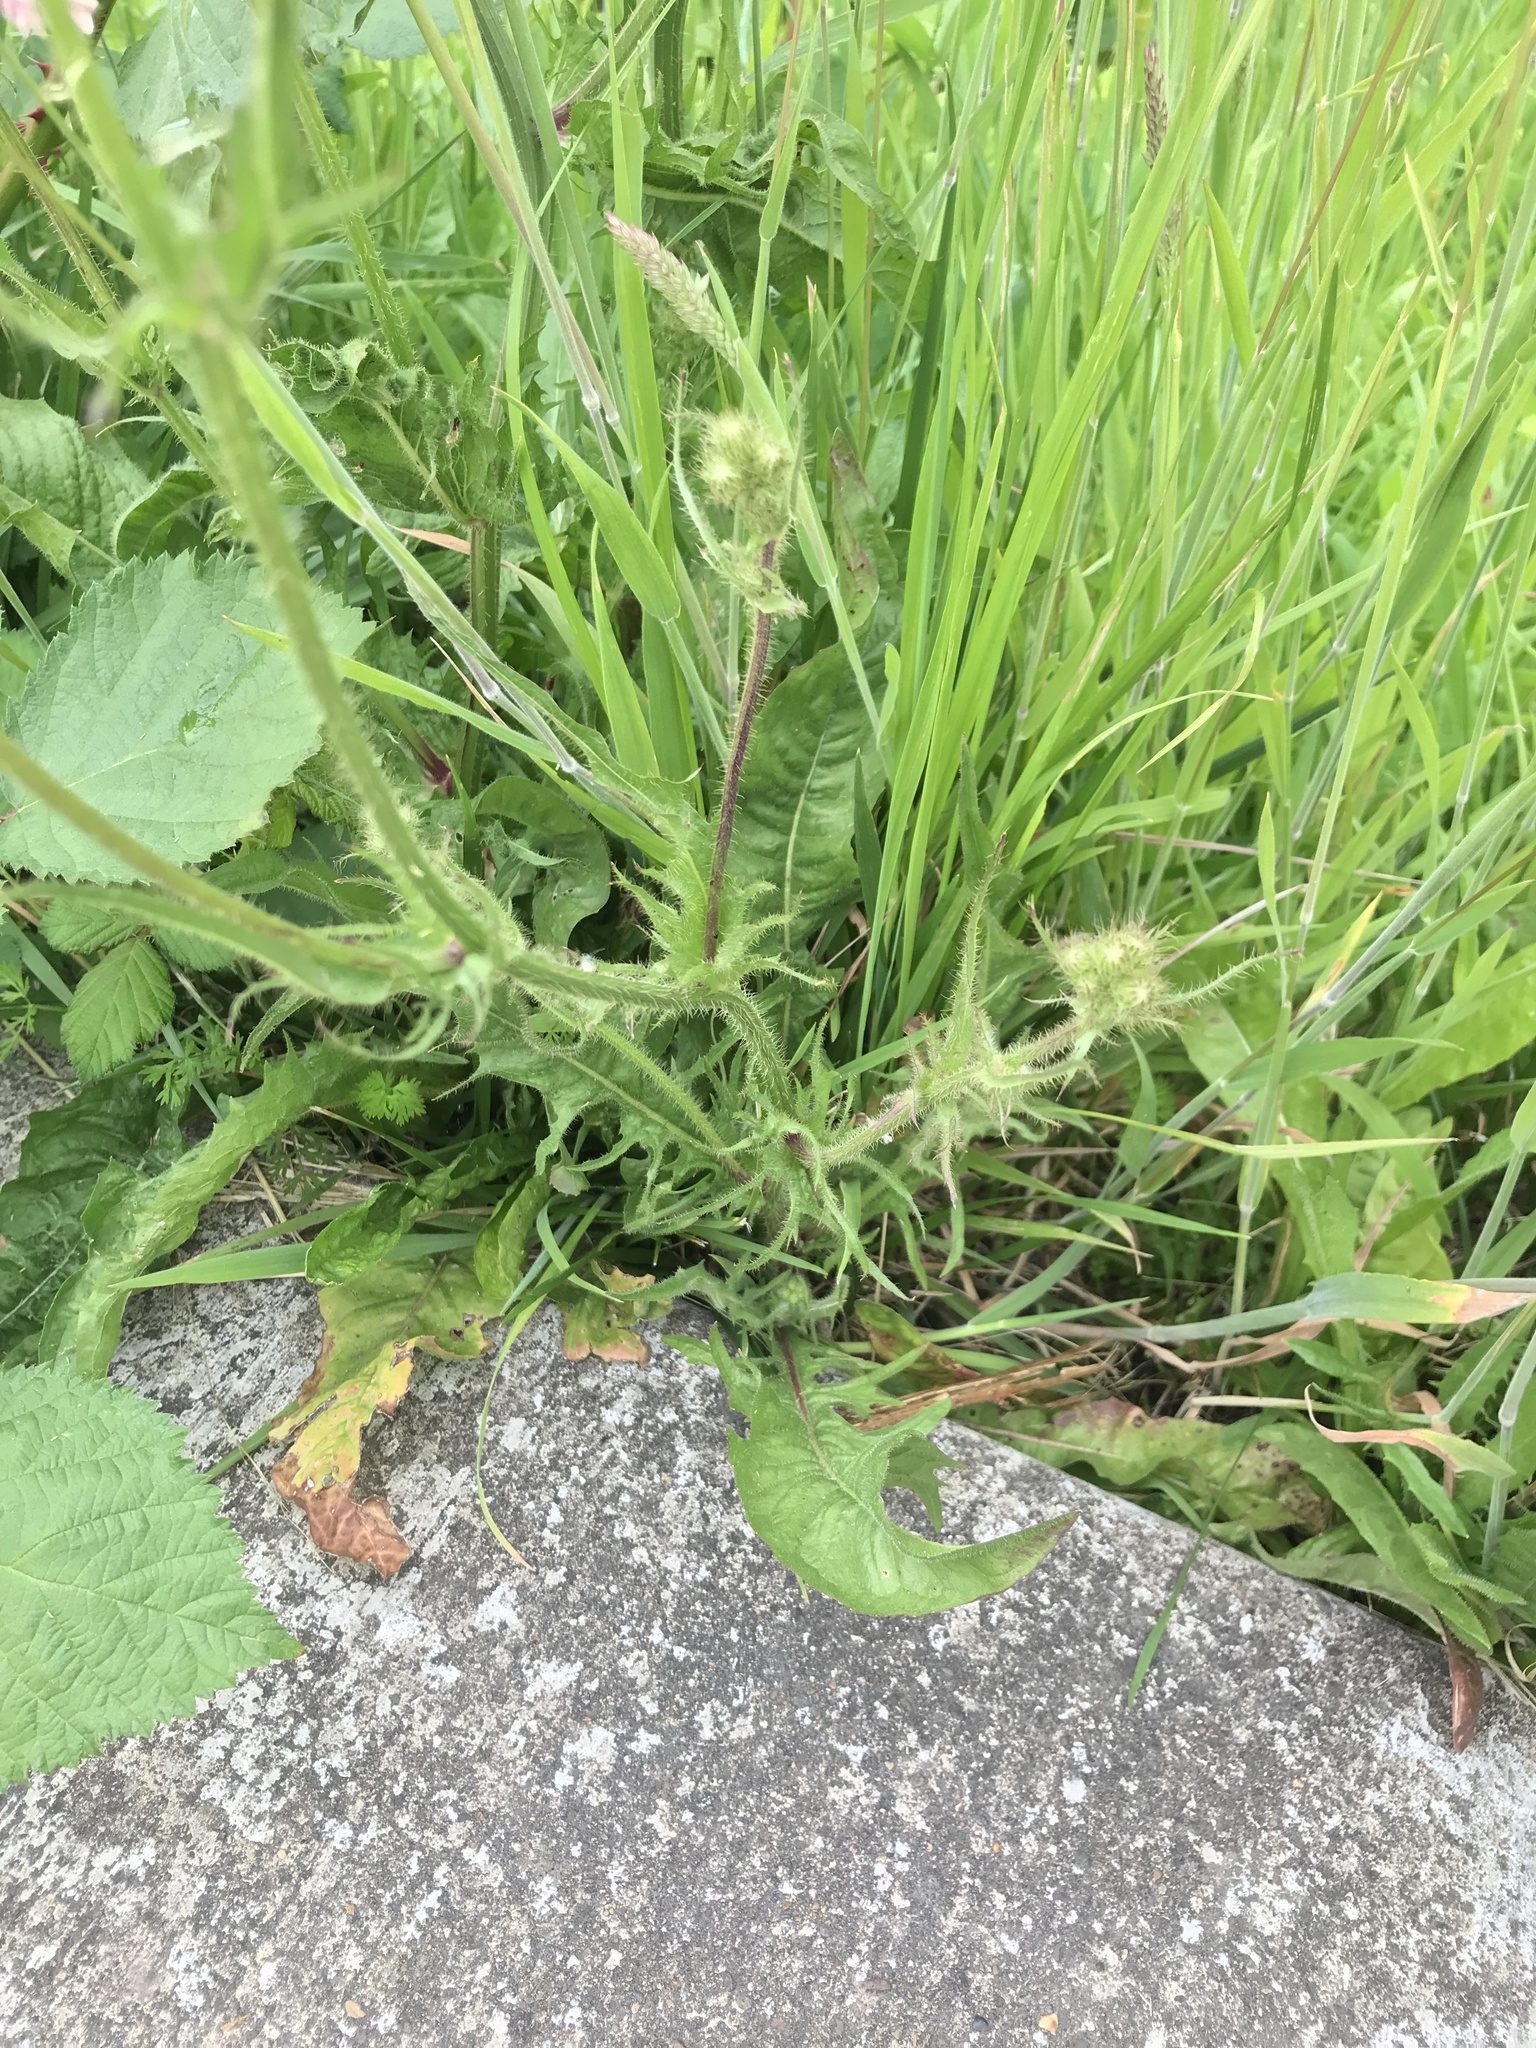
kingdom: Plantae
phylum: Tracheophyta
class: Magnoliopsida
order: Asterales
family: Asteraceae
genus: Crepis
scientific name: Crepis setosa
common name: Bristly hawk's-beard
